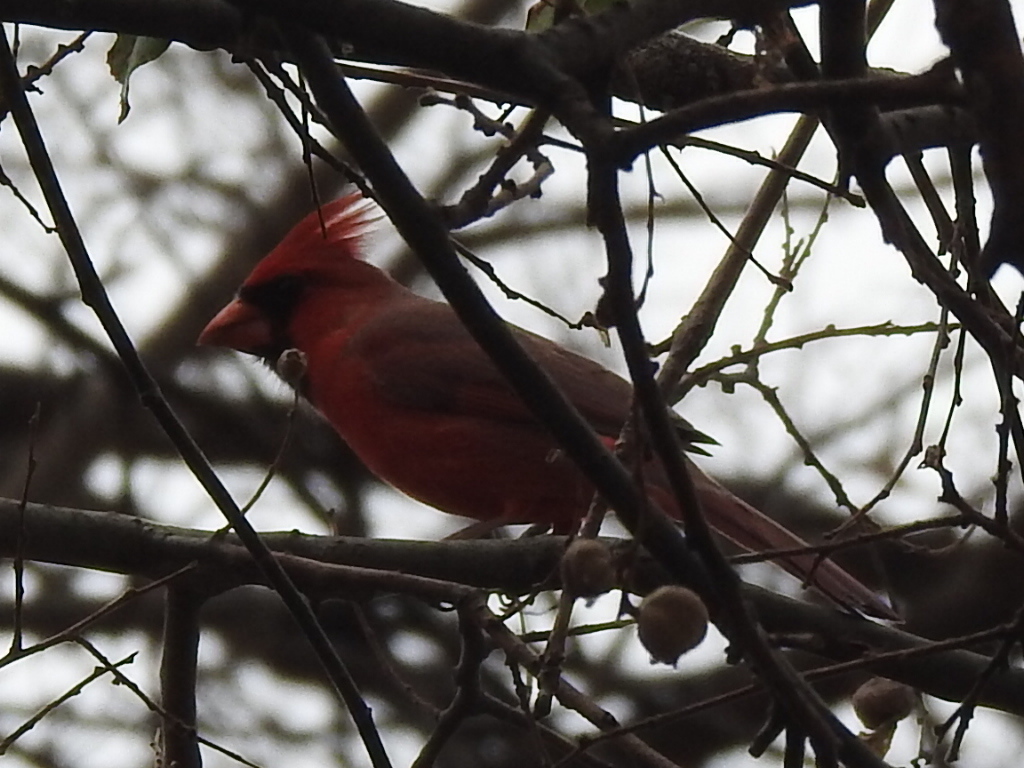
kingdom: Animalia
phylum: Chordata
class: Aves
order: Passeriformes
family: Cardinalidae
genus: Cardinalis
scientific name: Cardinalis cardinalis
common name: Northern cardinal
